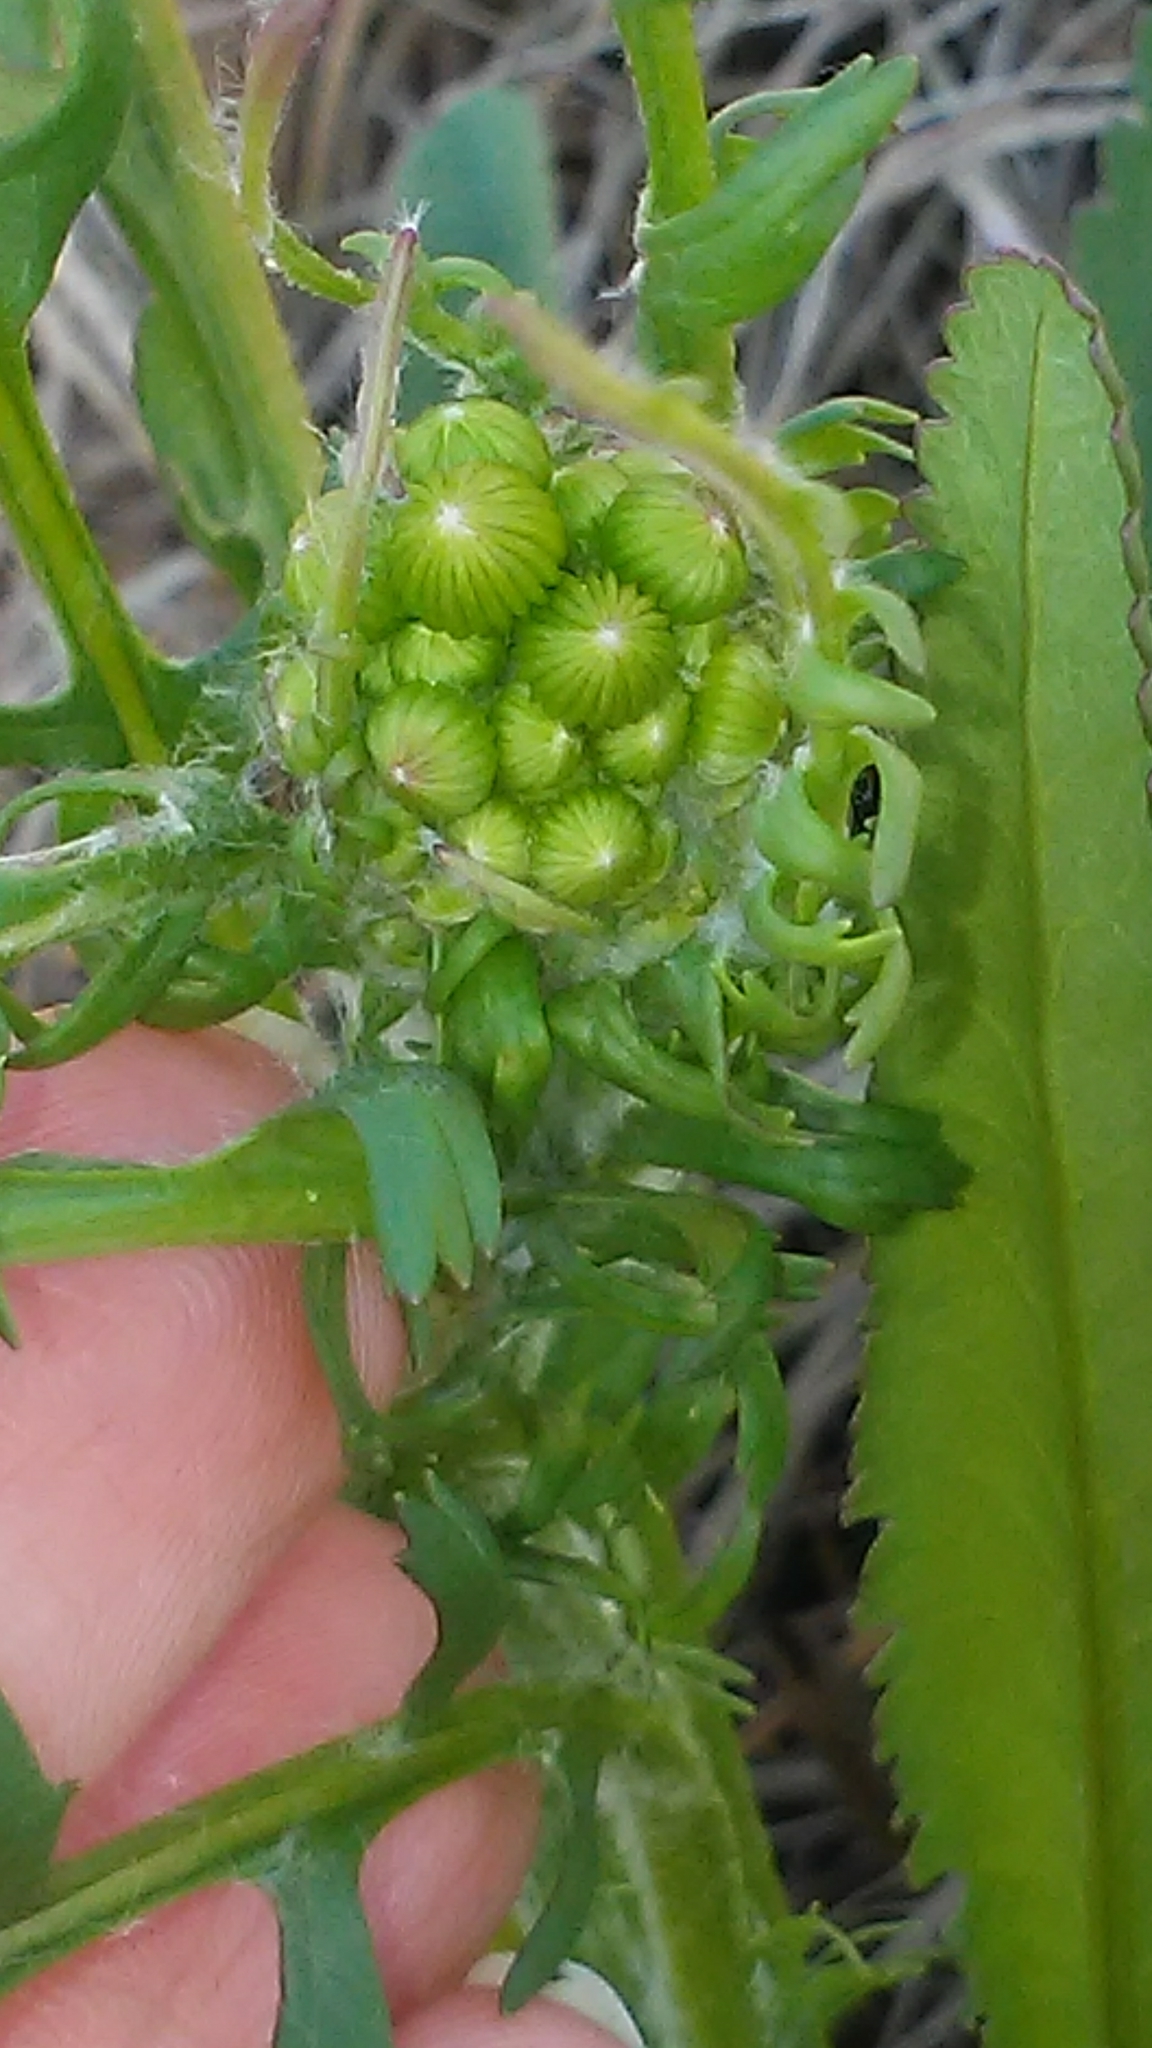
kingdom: Plantae
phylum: Tracheophyta
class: Magnoliopsida
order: Asterales
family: Asteraceae
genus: Packera
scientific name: Packera anonyma
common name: Small ragwort
